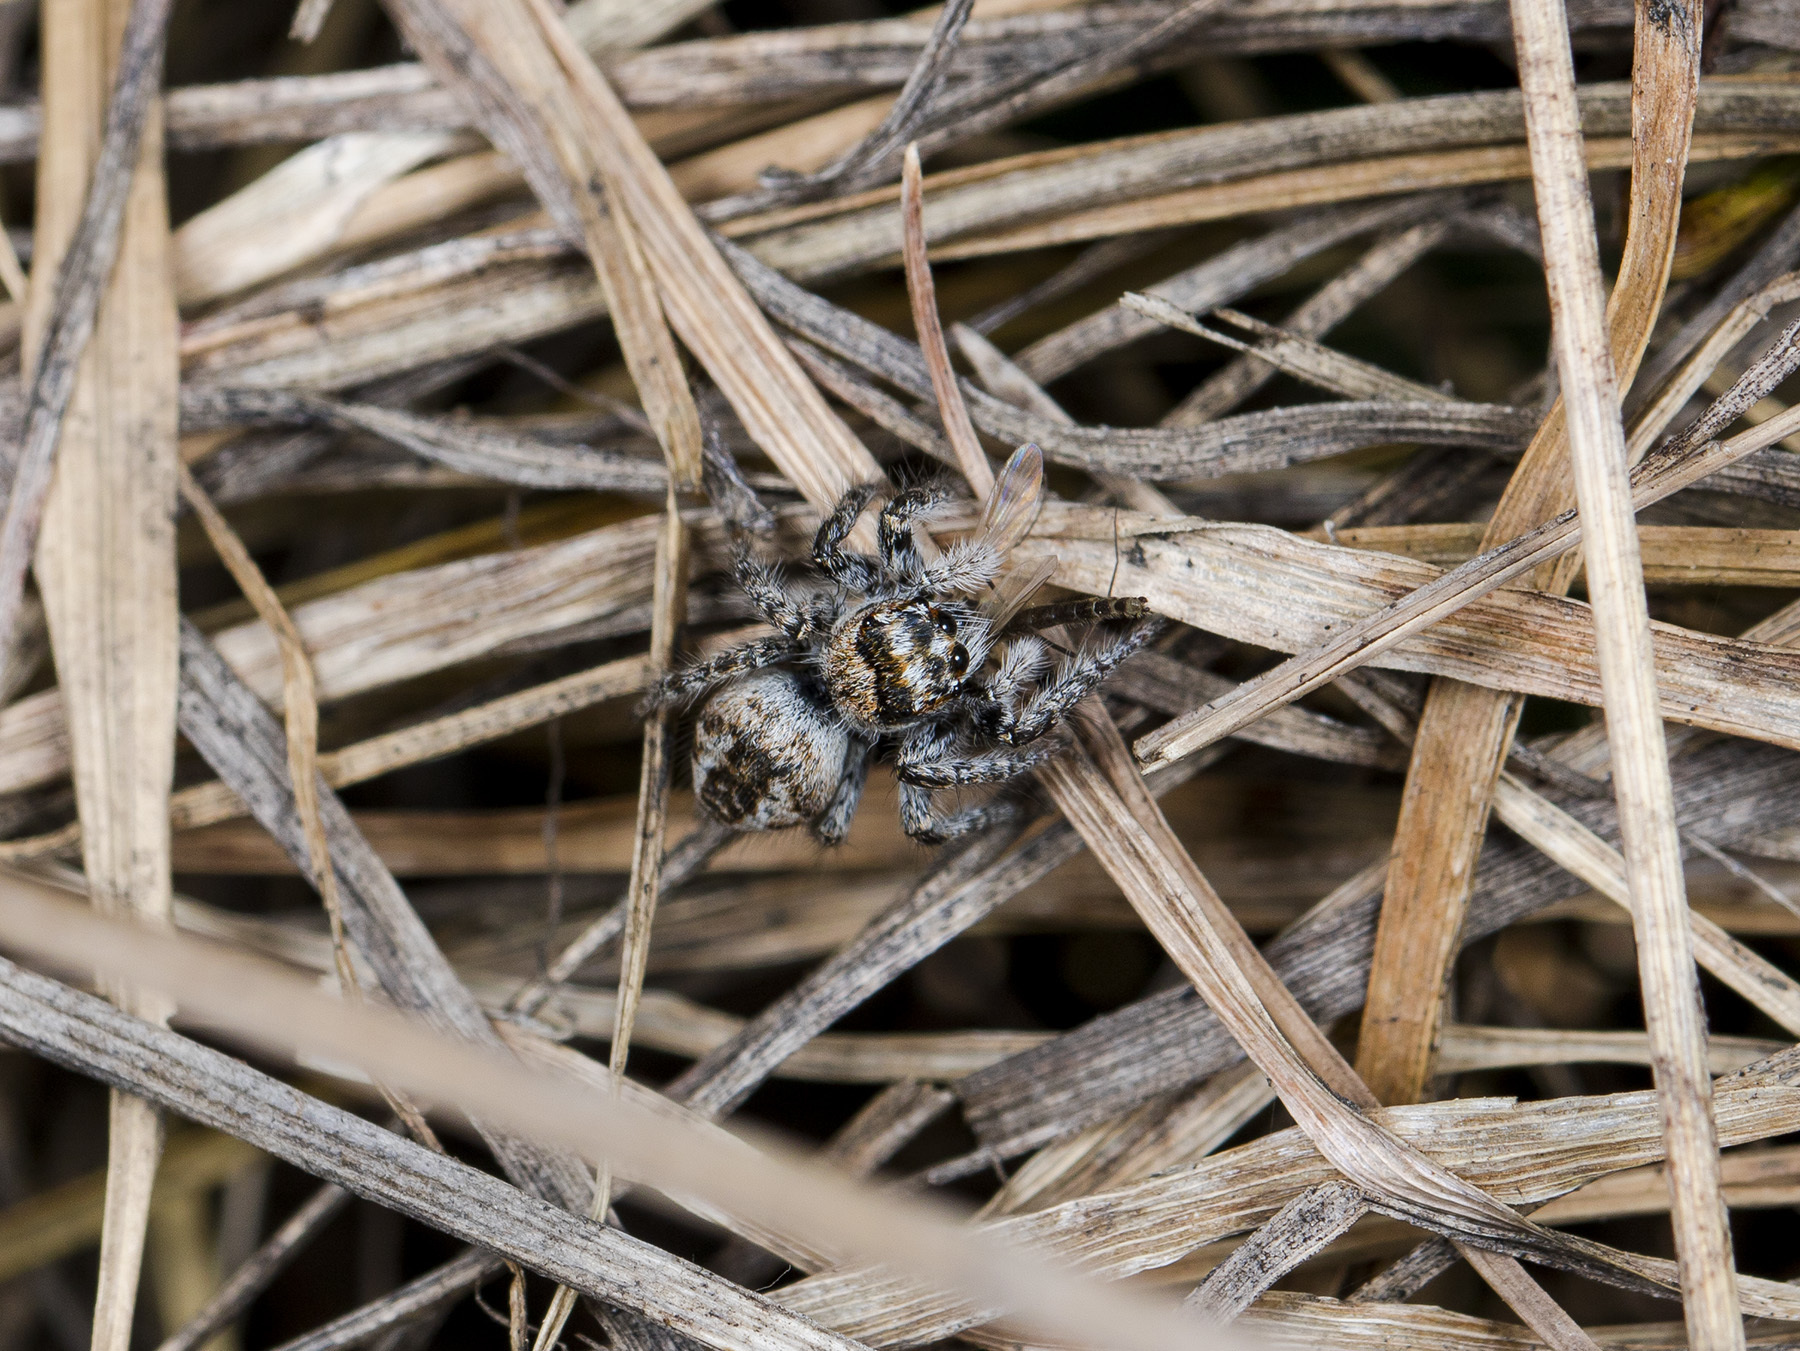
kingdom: Animalia
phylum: Arthropoda
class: Arachnida
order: Araneae
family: Salticidae
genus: Philaeus
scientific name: Philaeus chrysops
